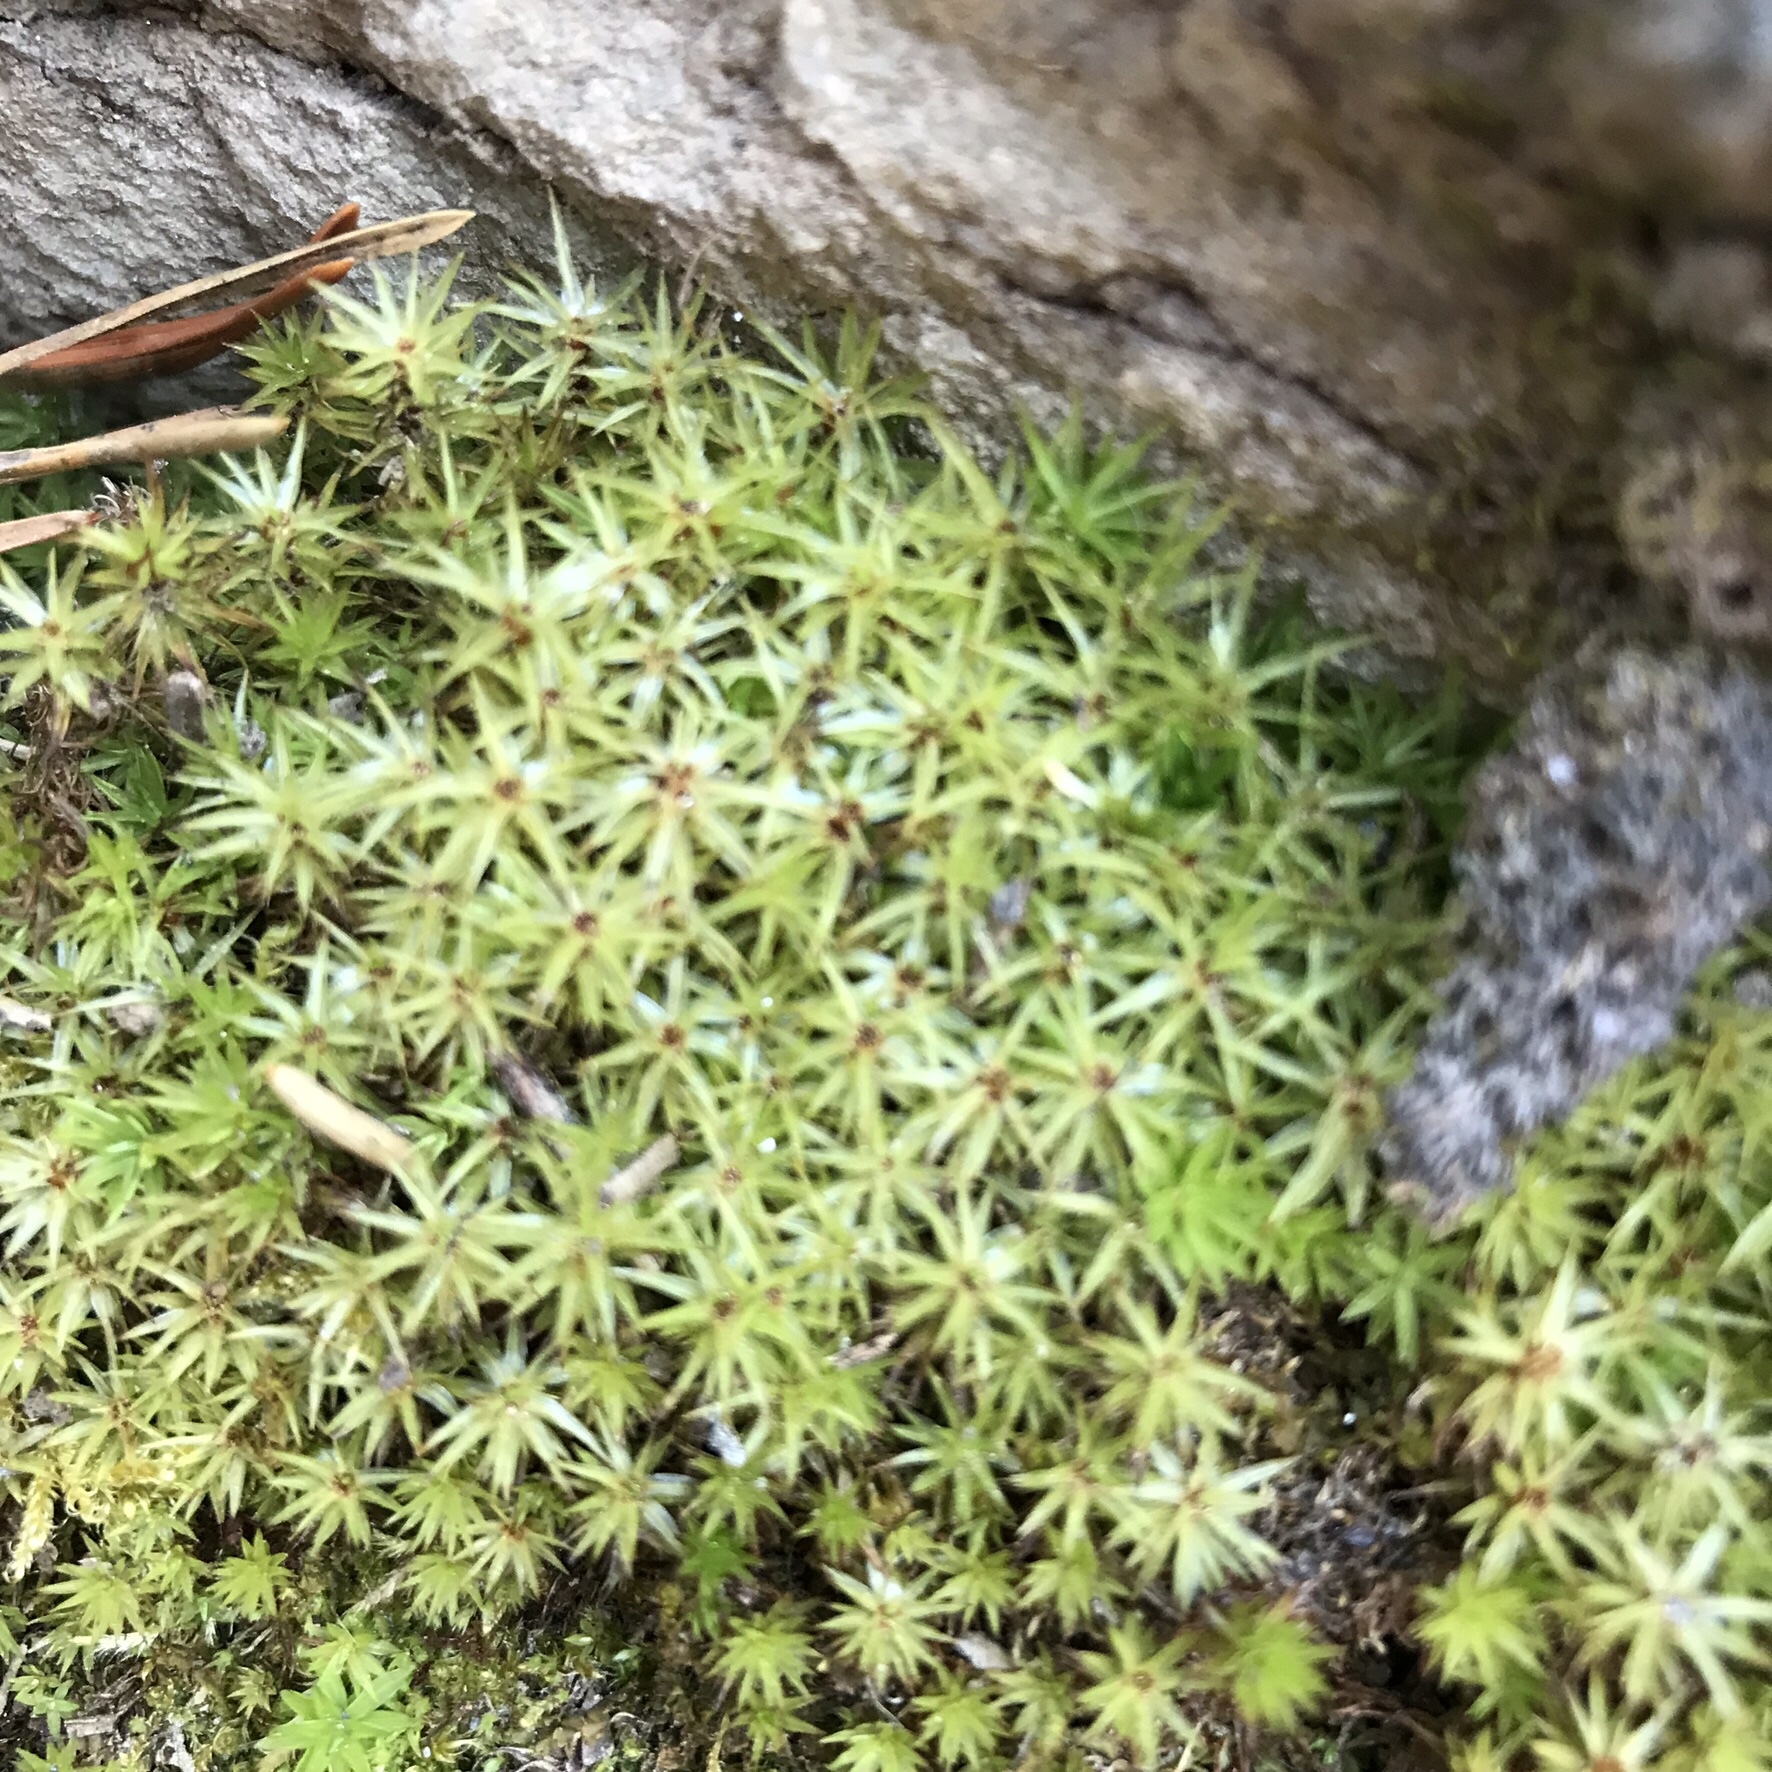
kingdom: Plantae
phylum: Bryophyta
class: Polytrichopsida
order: Polytrichales
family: Polytrichaceae
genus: Polytrichum
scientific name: Polytrichum commune
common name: Common haircap
